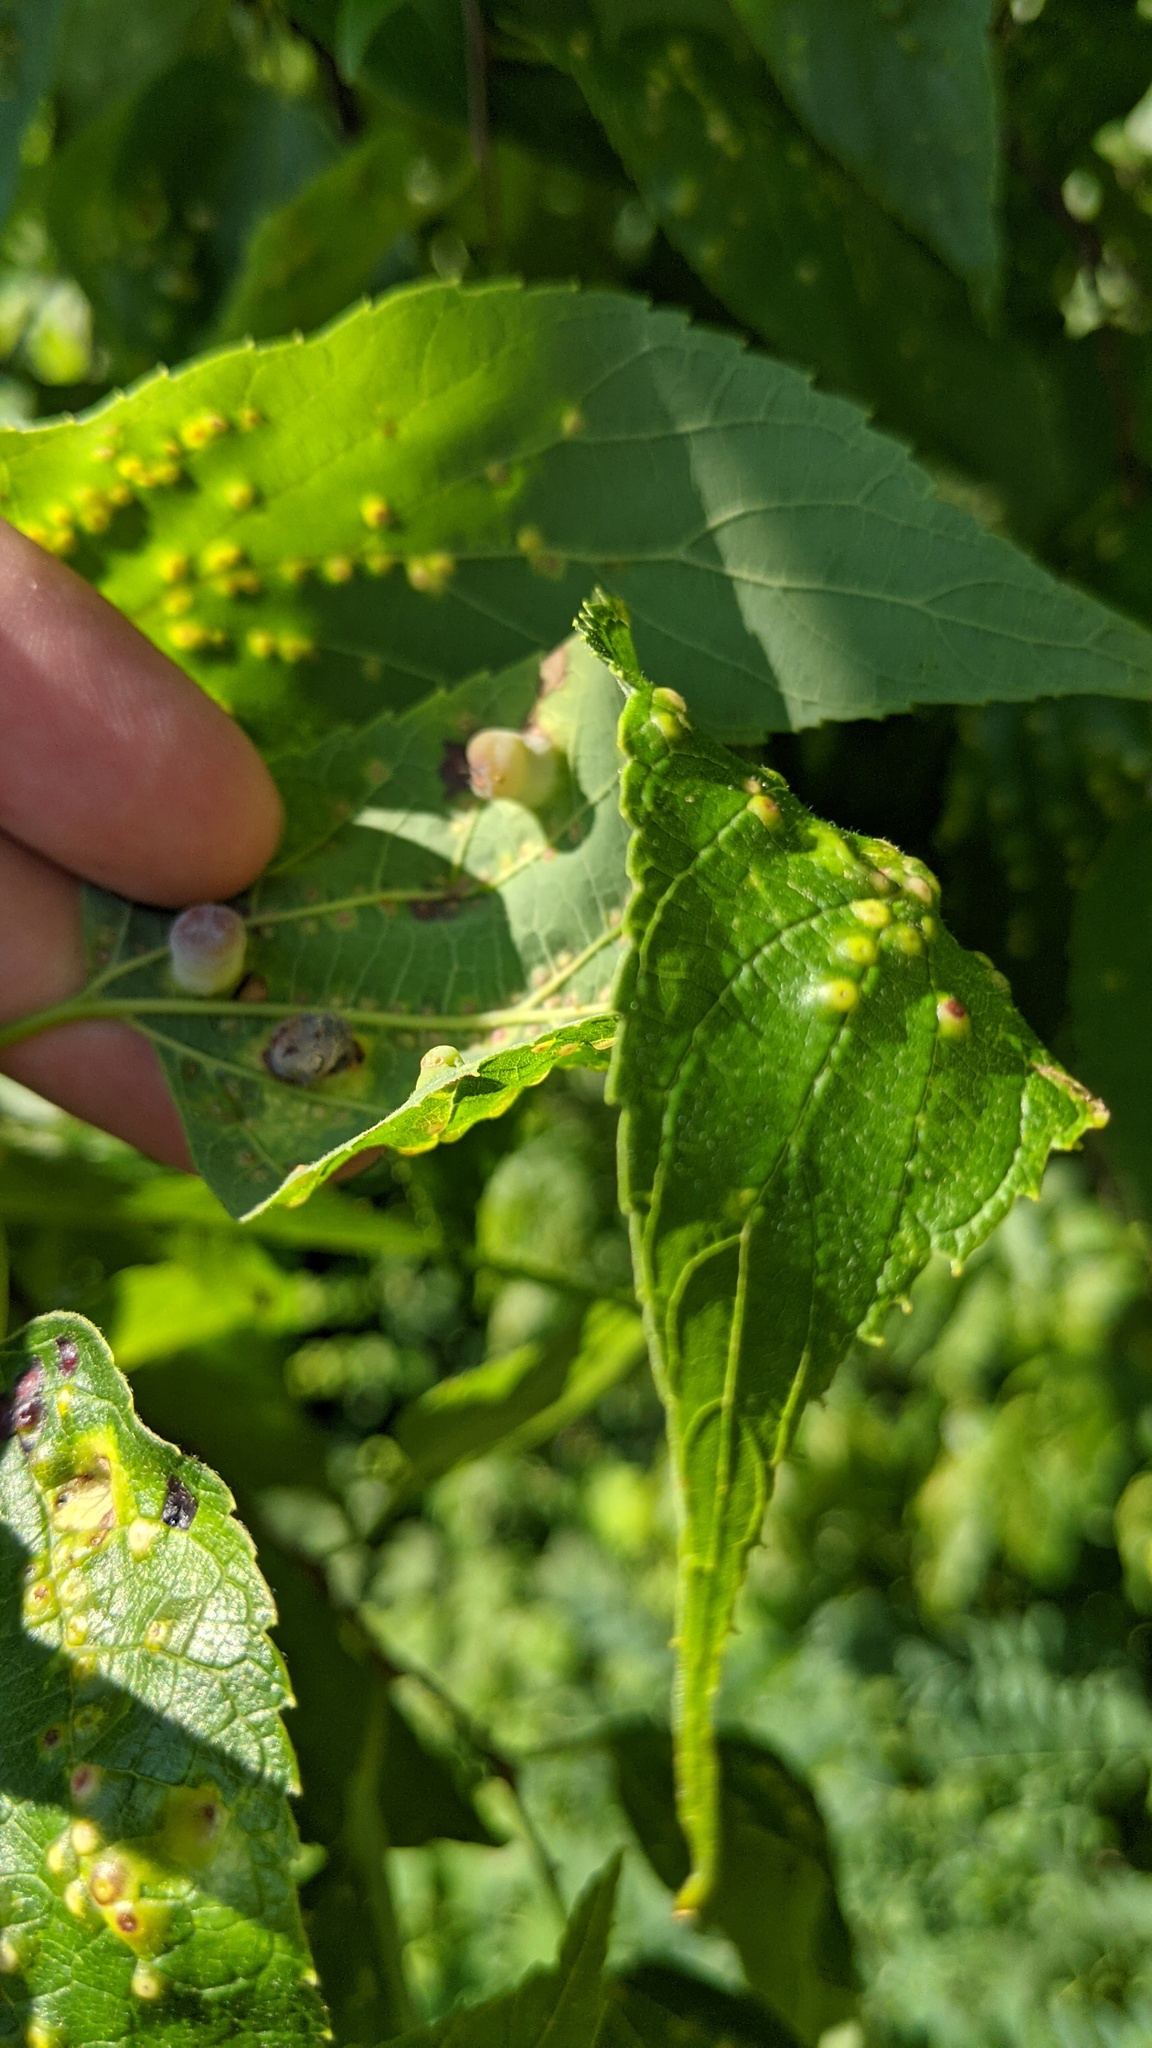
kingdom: Animalia
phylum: Arthropoda
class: Insecta
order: Hemiptera
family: Aphalaridae
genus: Pachypsylla
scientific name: Pachypsylla celtidismamma
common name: Hackberry nipplegall psyllid
